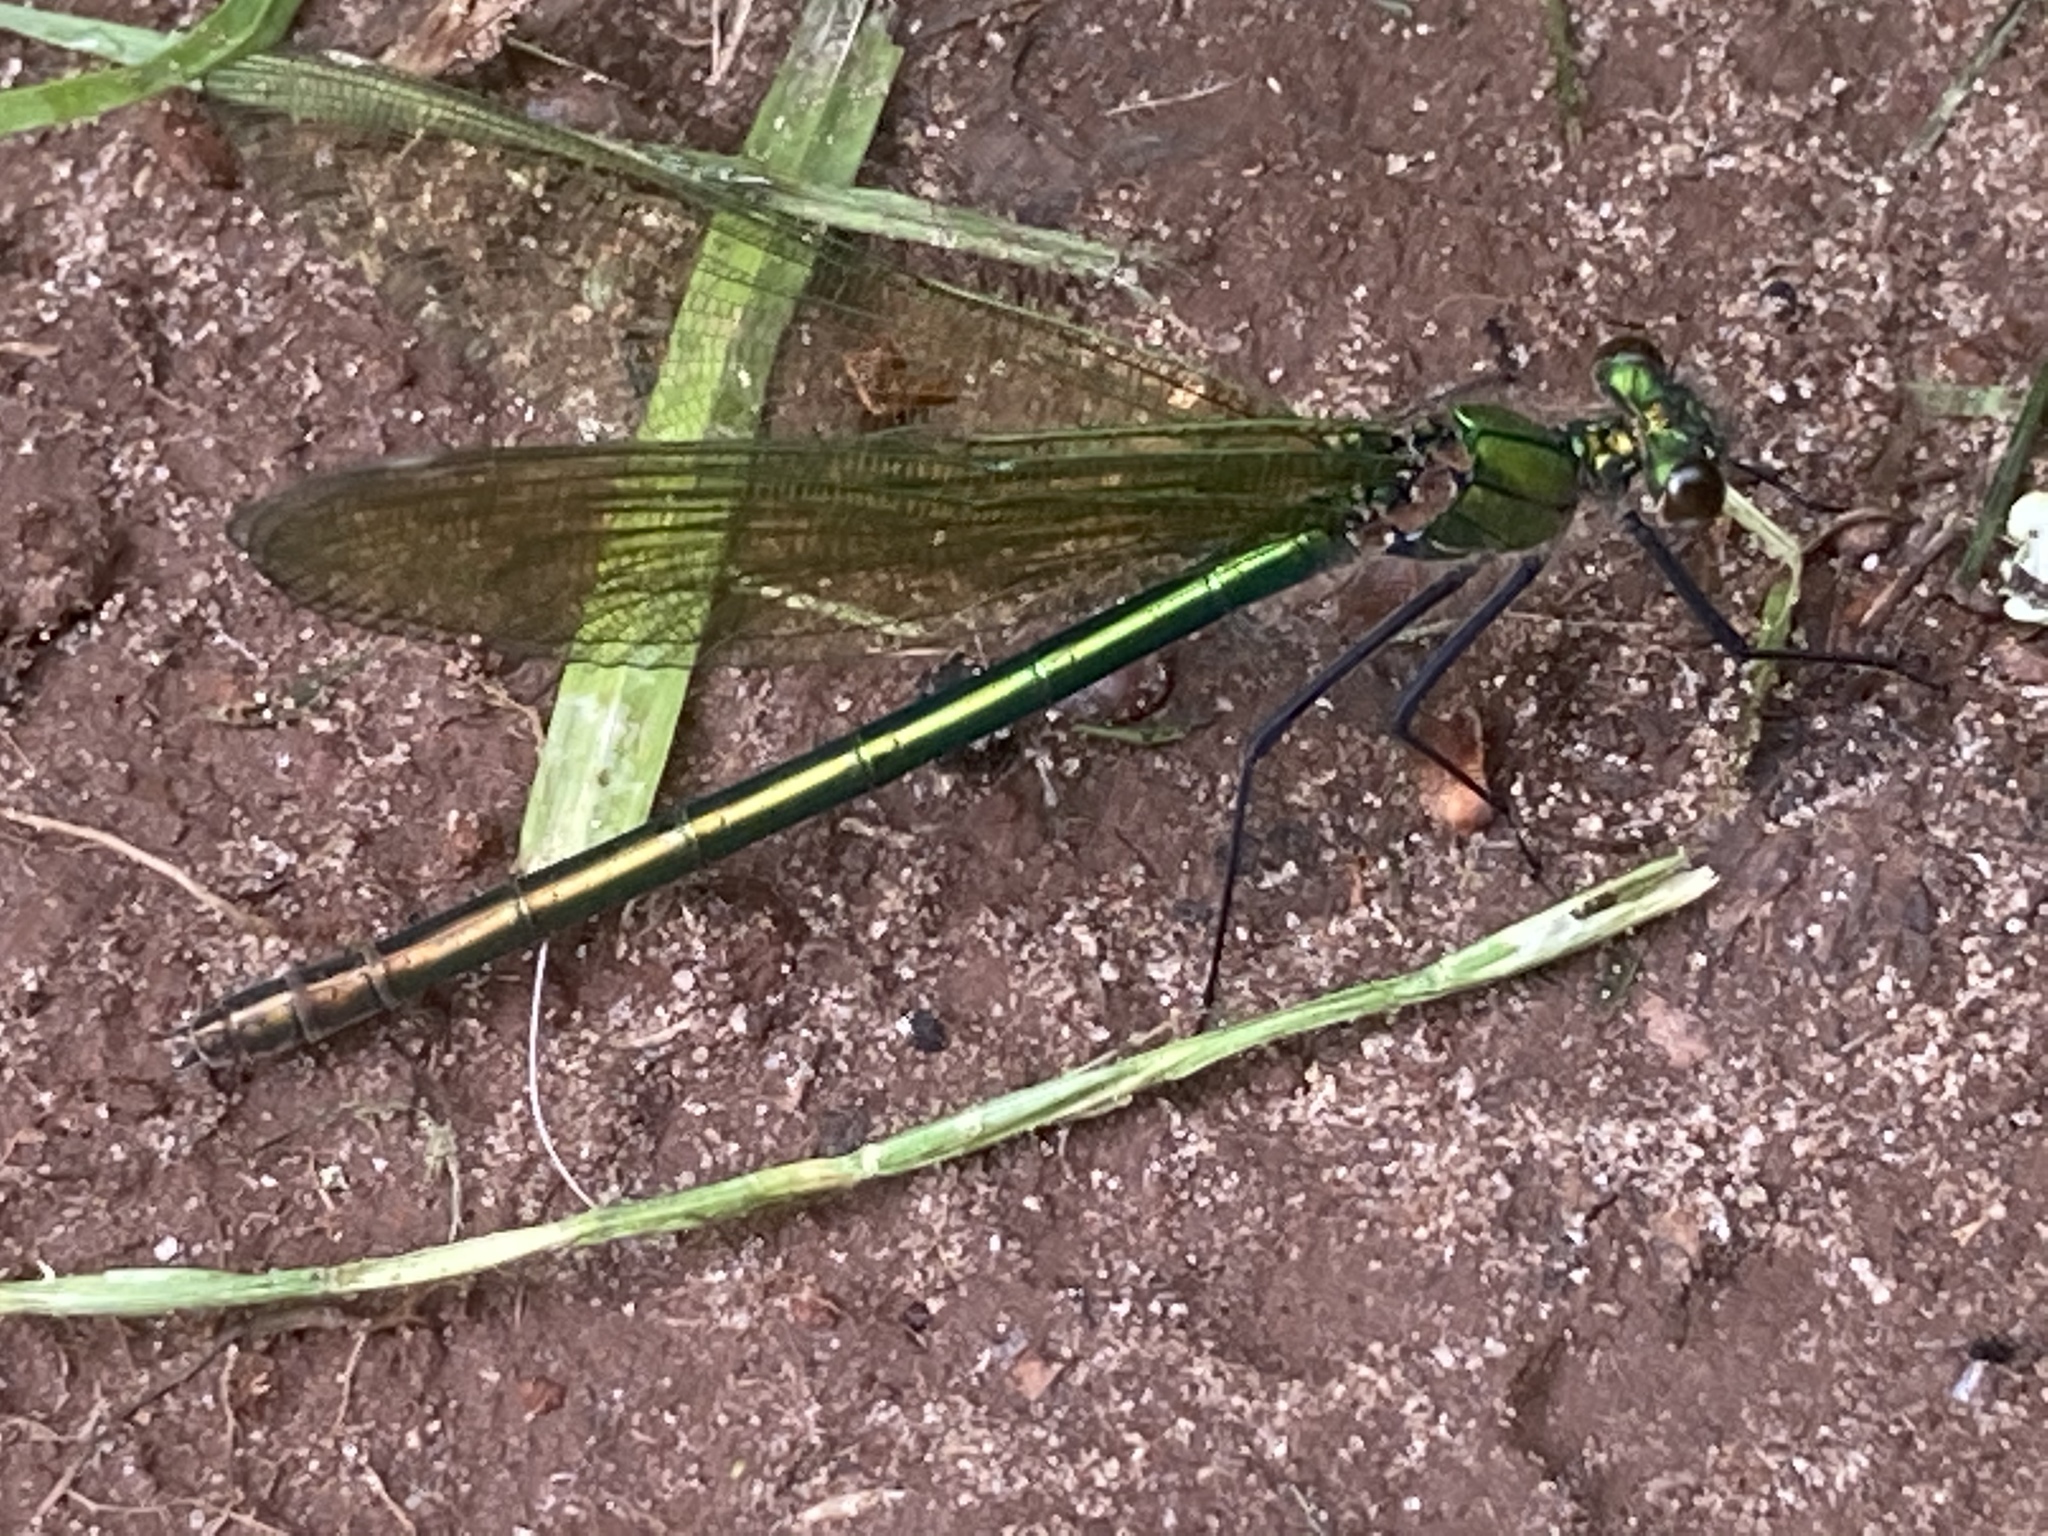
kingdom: Animalia
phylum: Arthropoda
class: Insecta
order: Odonata
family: Calopterygidae
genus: Calopteryx
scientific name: Calopteryx splendens
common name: Banded demoiselle
